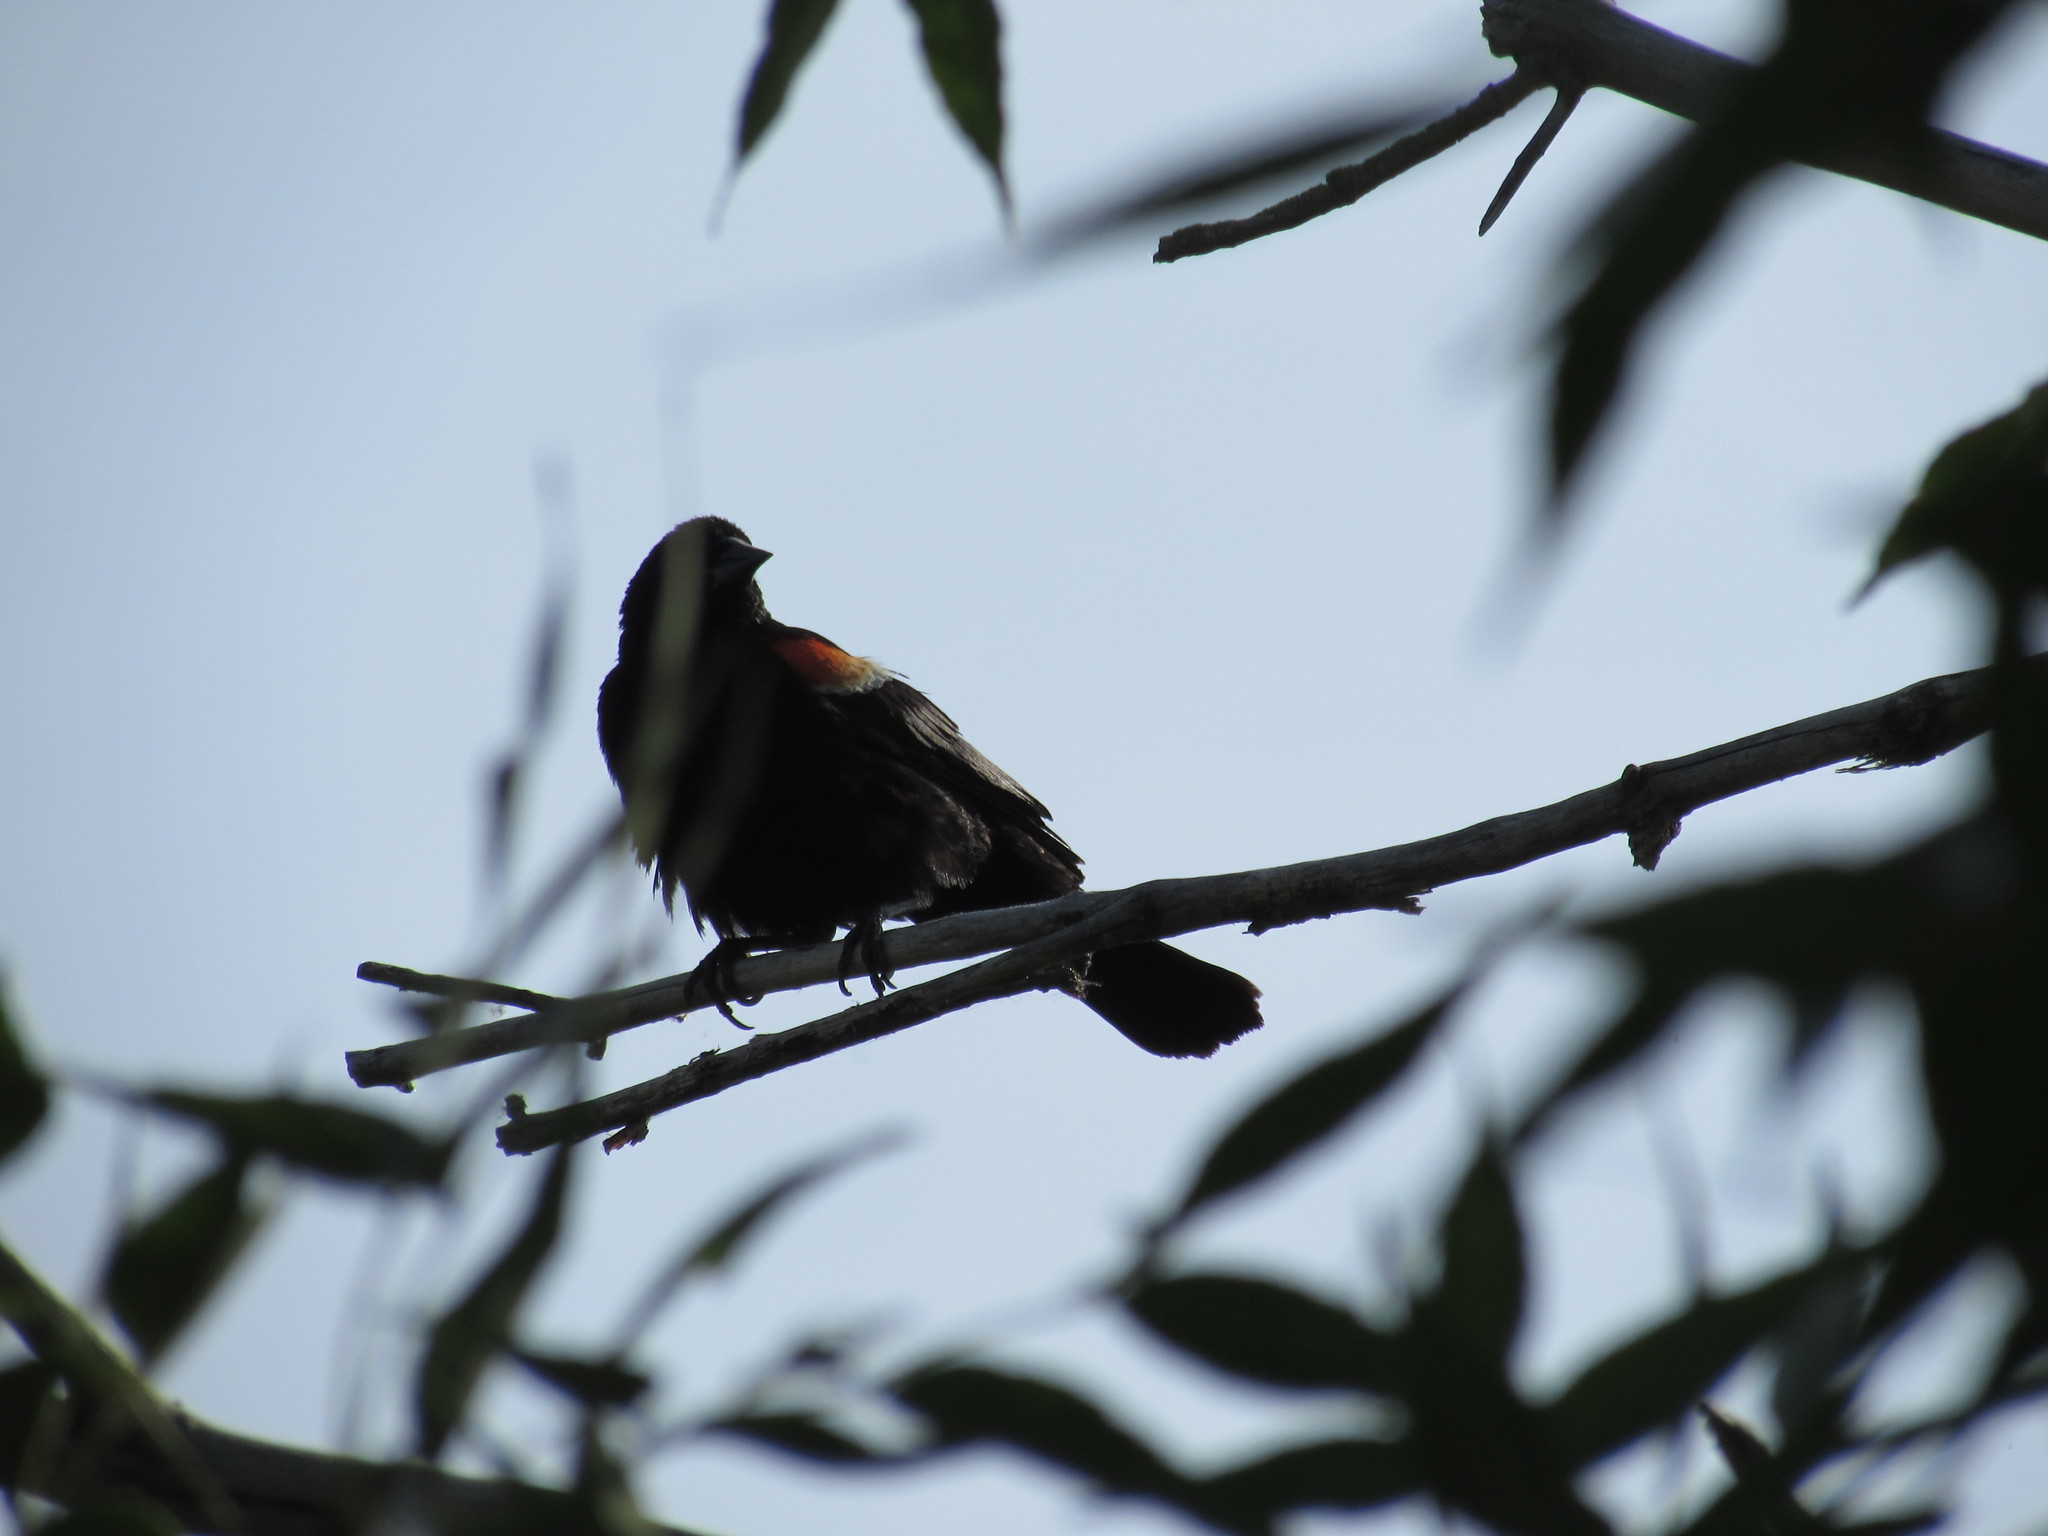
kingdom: Animalia
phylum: Chordata
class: Aves
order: Passeriformes
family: Icteridae
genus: Agelaius
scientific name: Agelaius phoeniceus
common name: Red-winged blackbird
